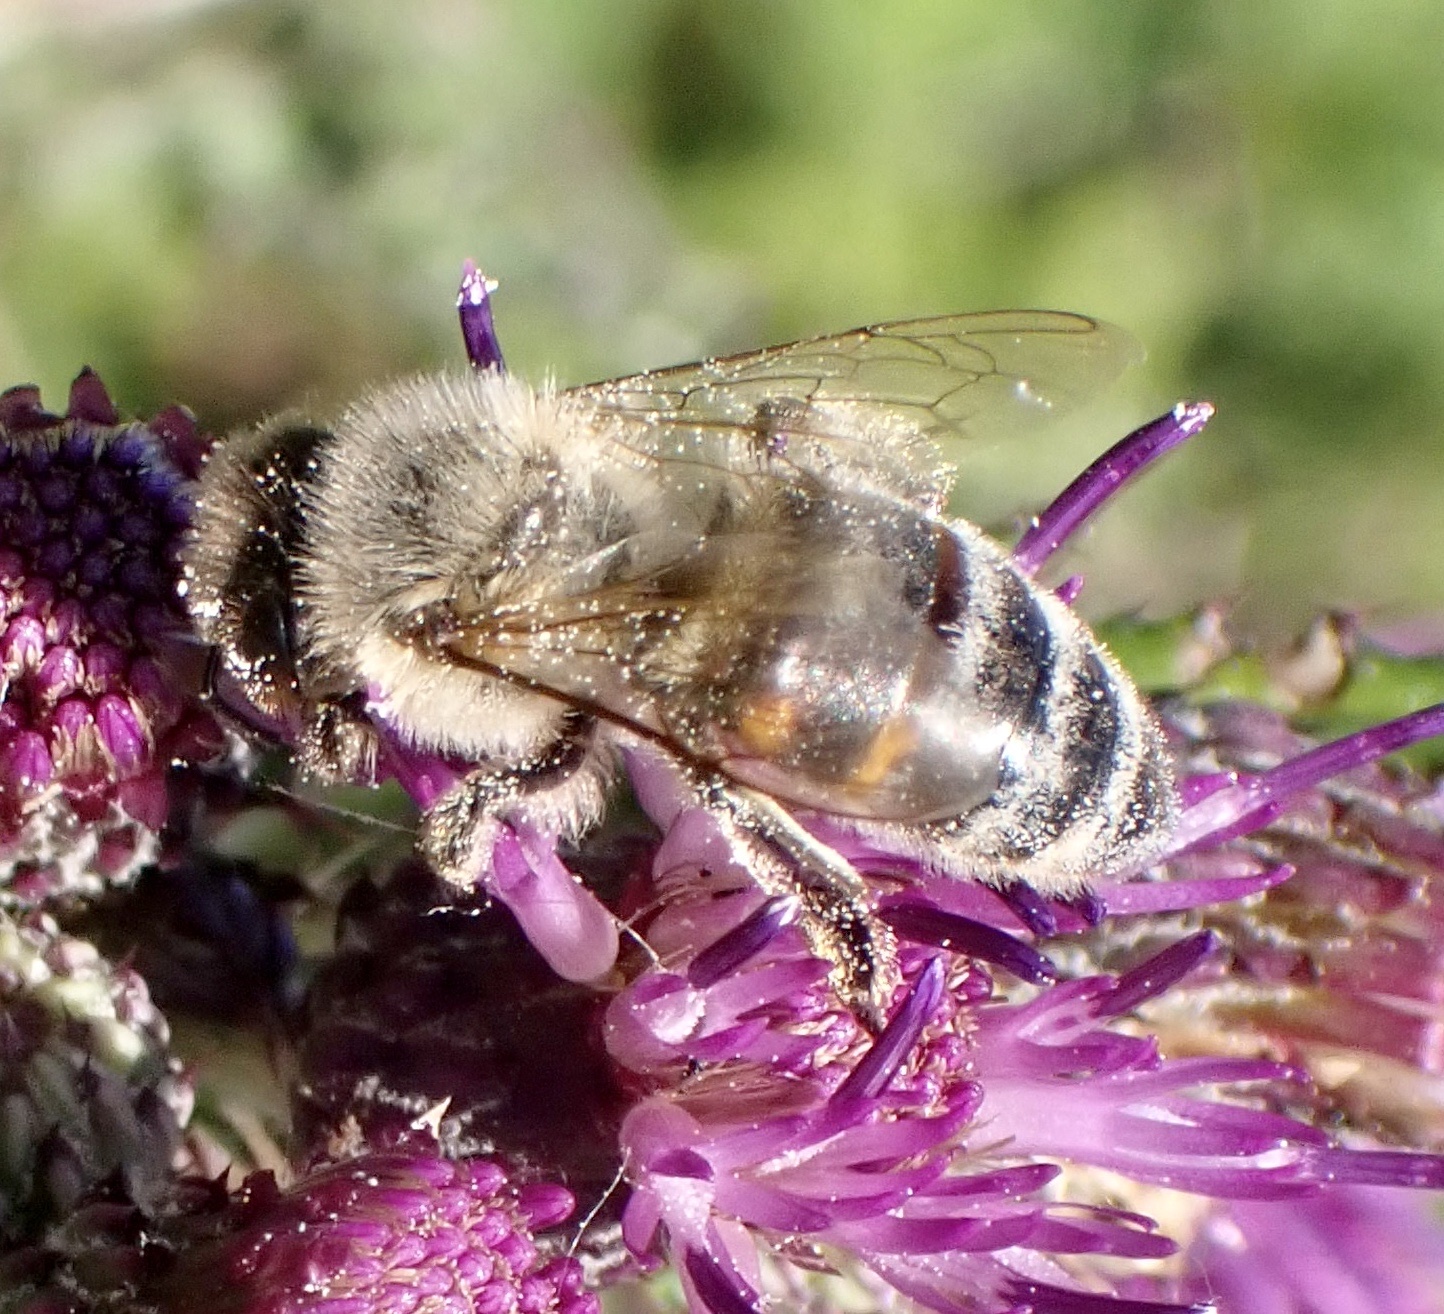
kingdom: Animalia
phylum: Arthropoda
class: Insecta
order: Hymenoptera
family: Apidae
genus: Apis
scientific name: Apis mellifera
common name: Honey bee
